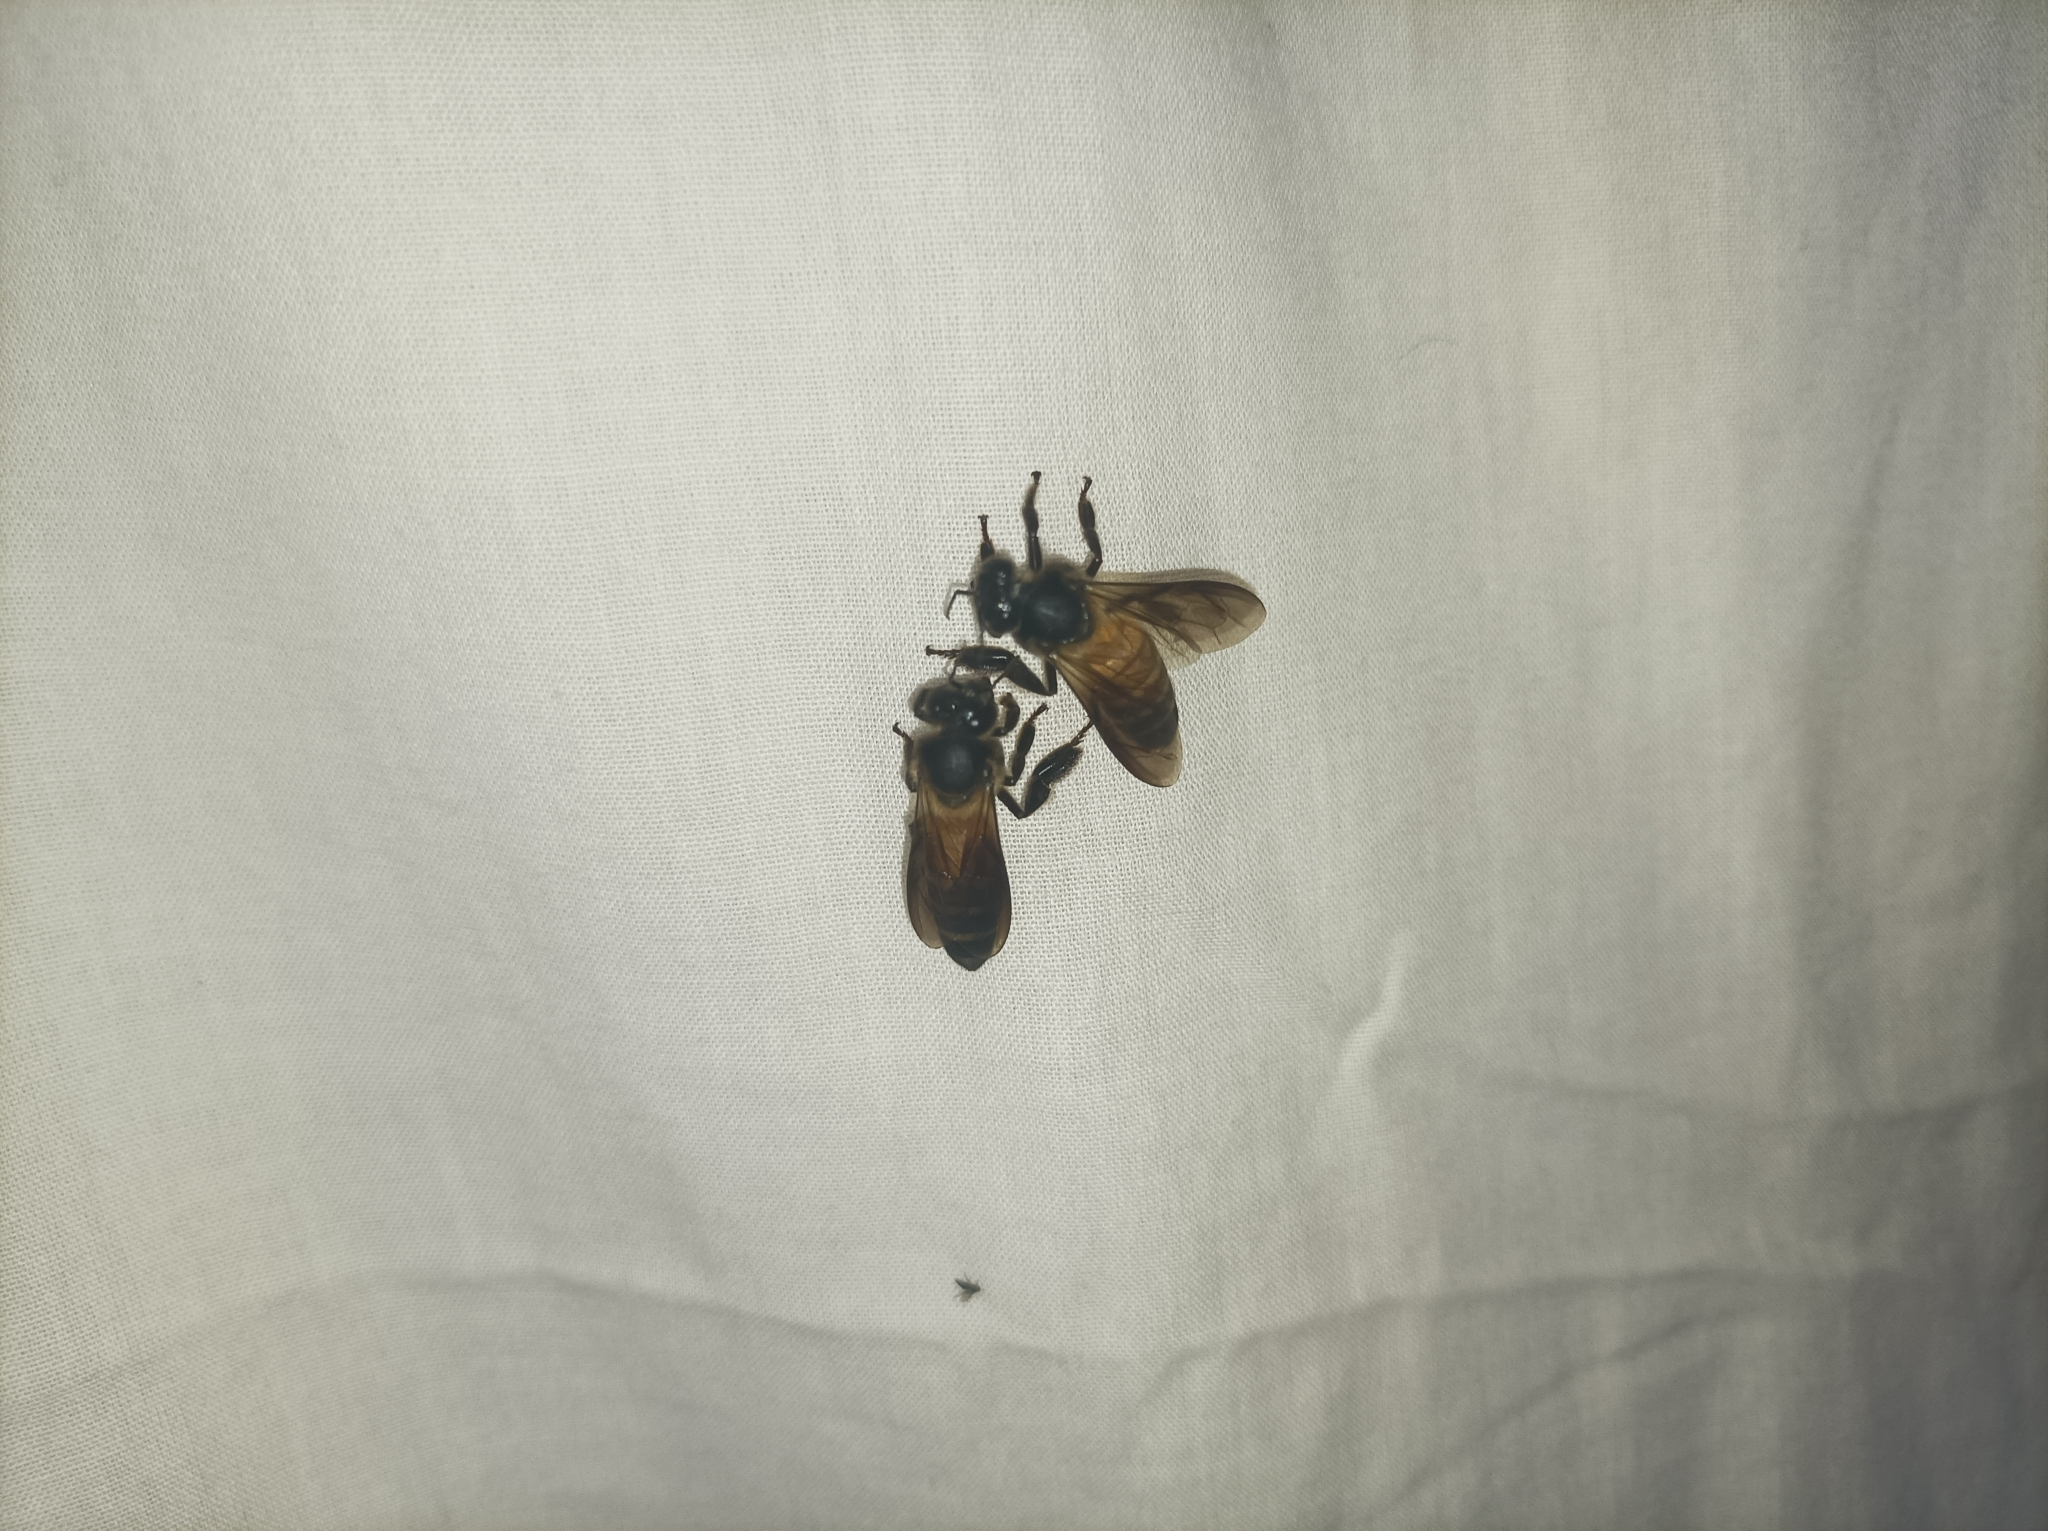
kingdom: Animalia
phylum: Arthropoda
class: Insecta
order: Hymenoptera
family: Apidae
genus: Apis
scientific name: Apis dorsata
